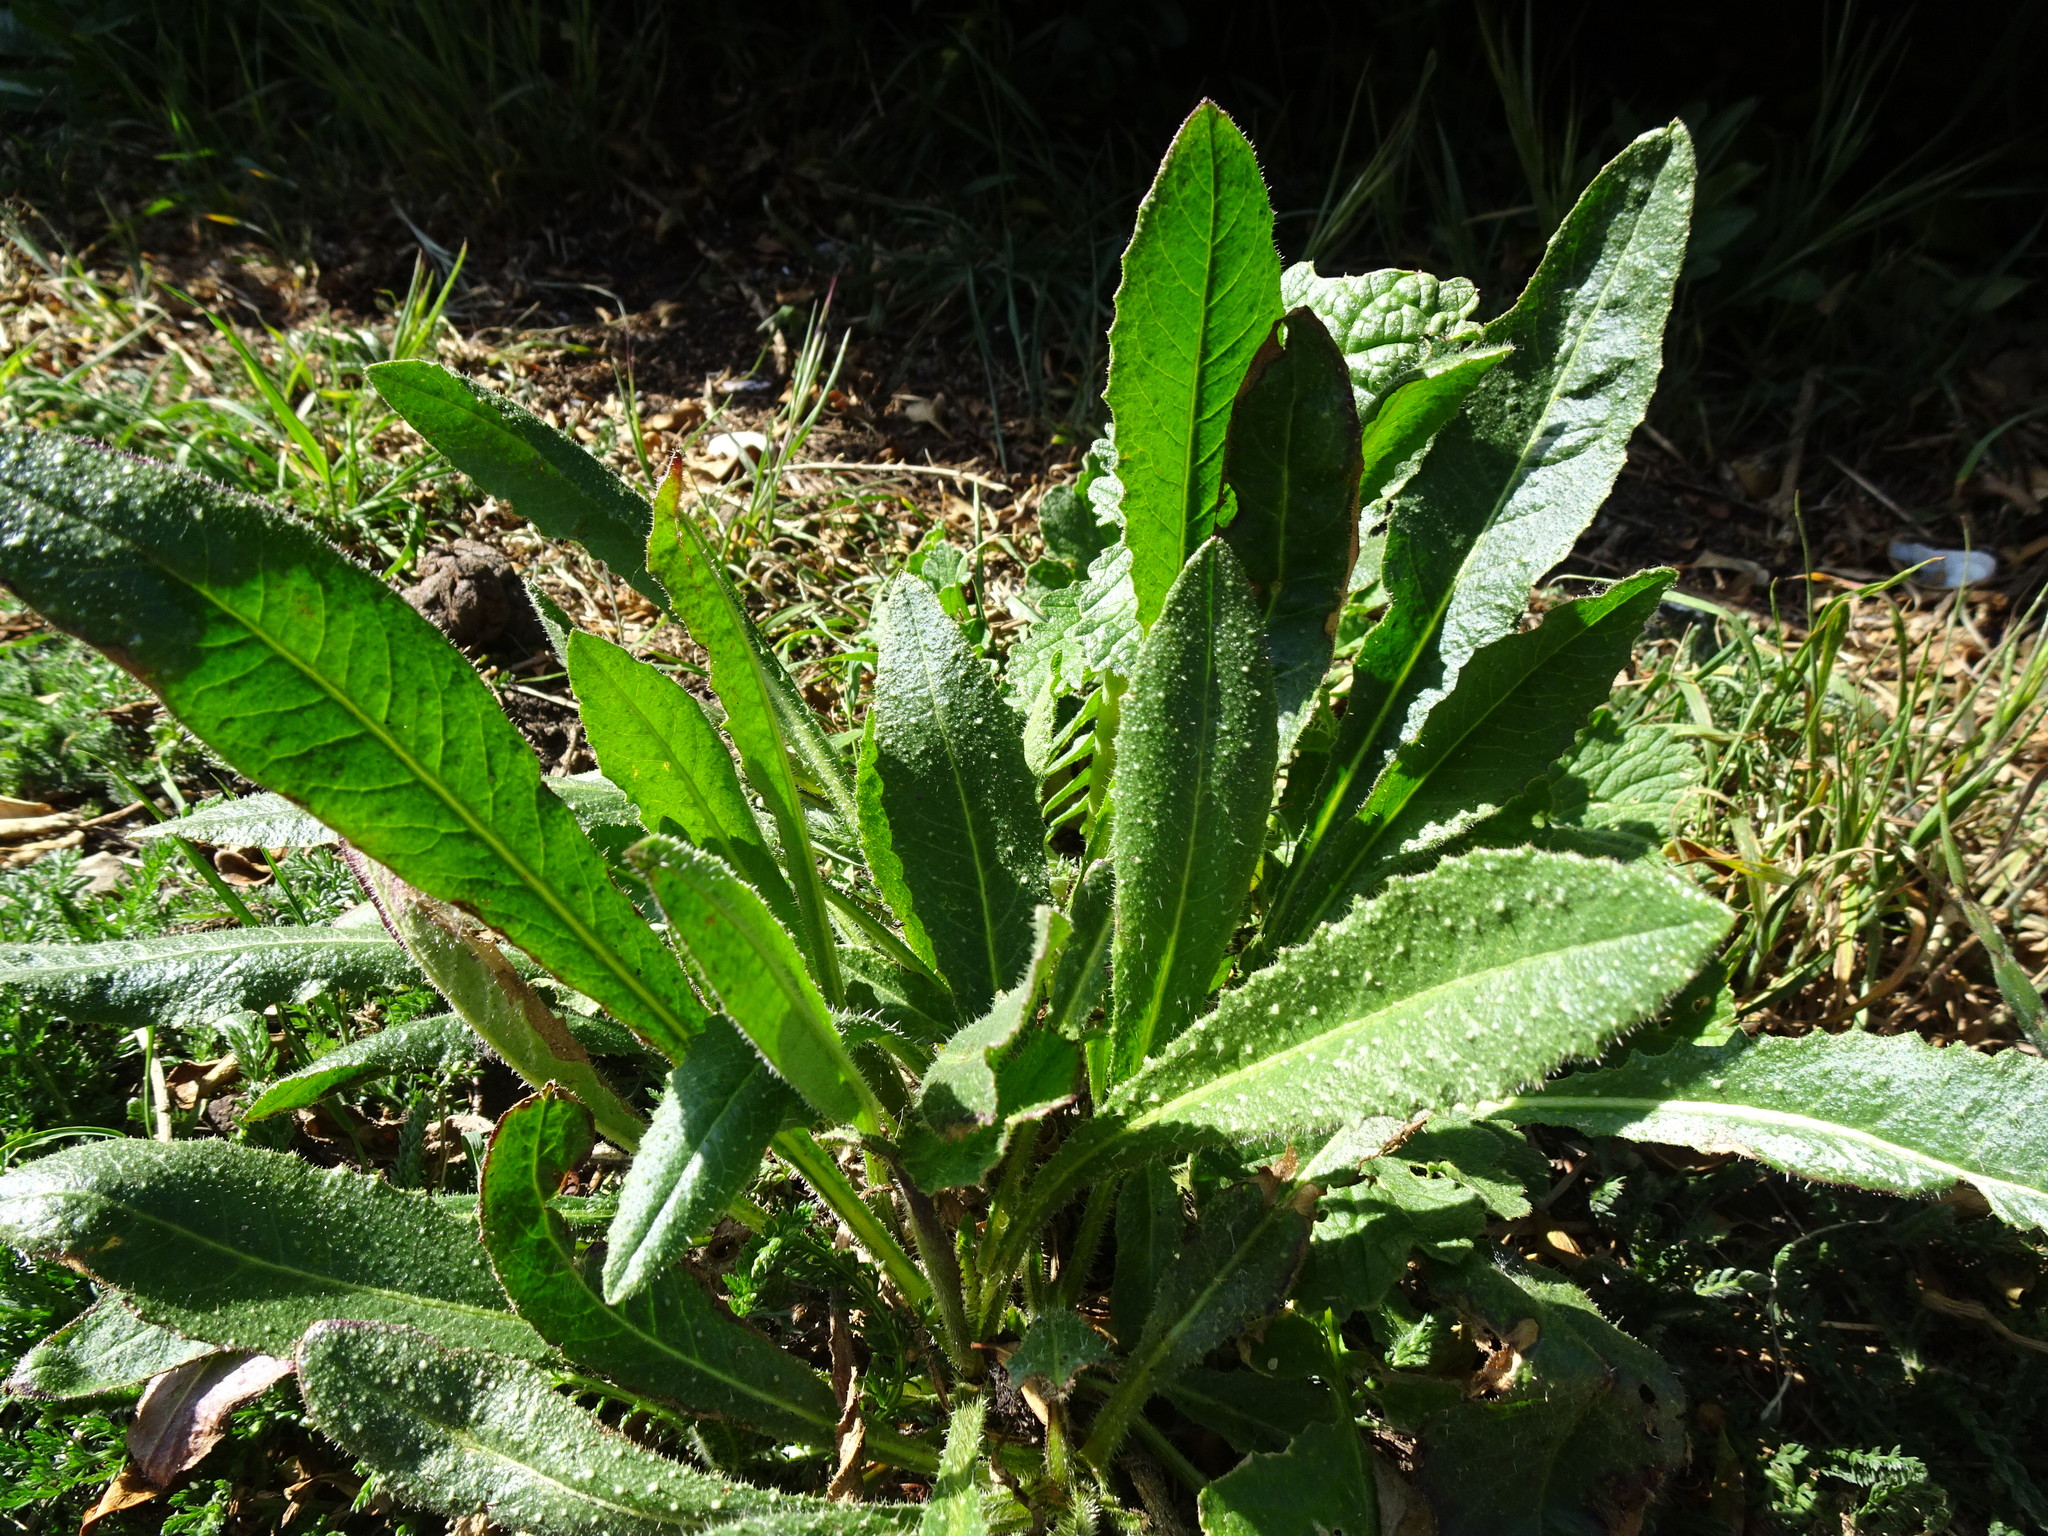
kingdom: Plantae
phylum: Tracheophyta
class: Magnoliopsida
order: Asterales
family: Asteraceae
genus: Helminthotheca
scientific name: Helminthotheca echioides
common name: Ox-tongue
